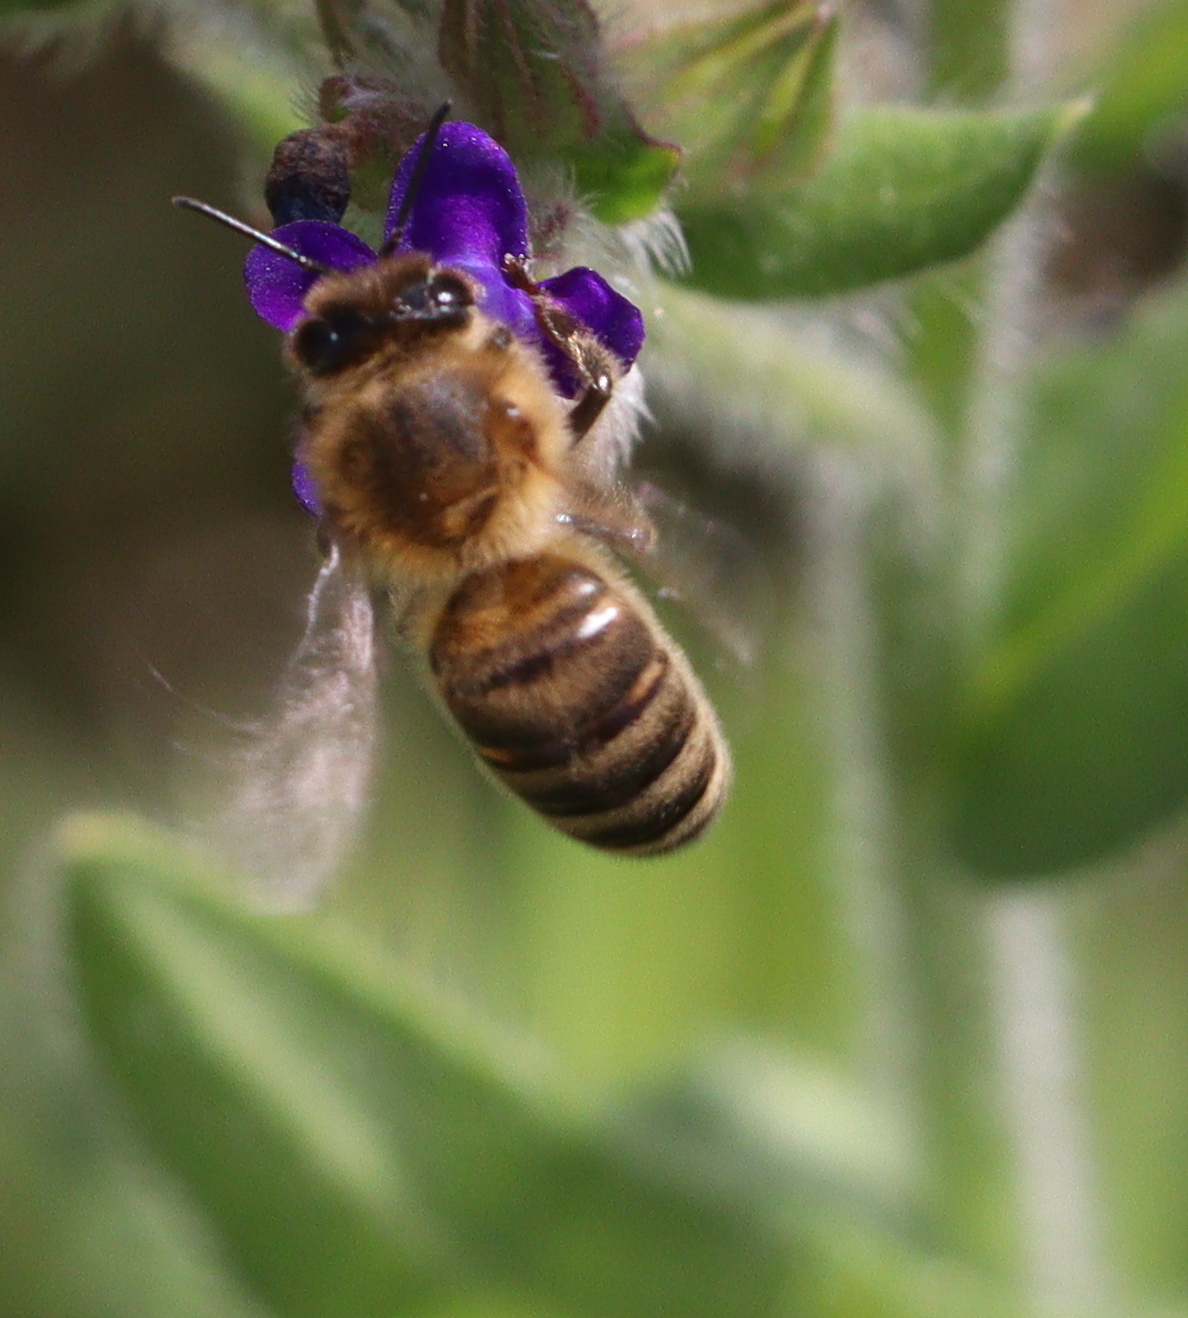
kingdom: Animalia
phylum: Arthropoda
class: Insecta
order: Hymenoptera
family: Apidae
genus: Apis
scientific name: Apis mellifera
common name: Honey bee
